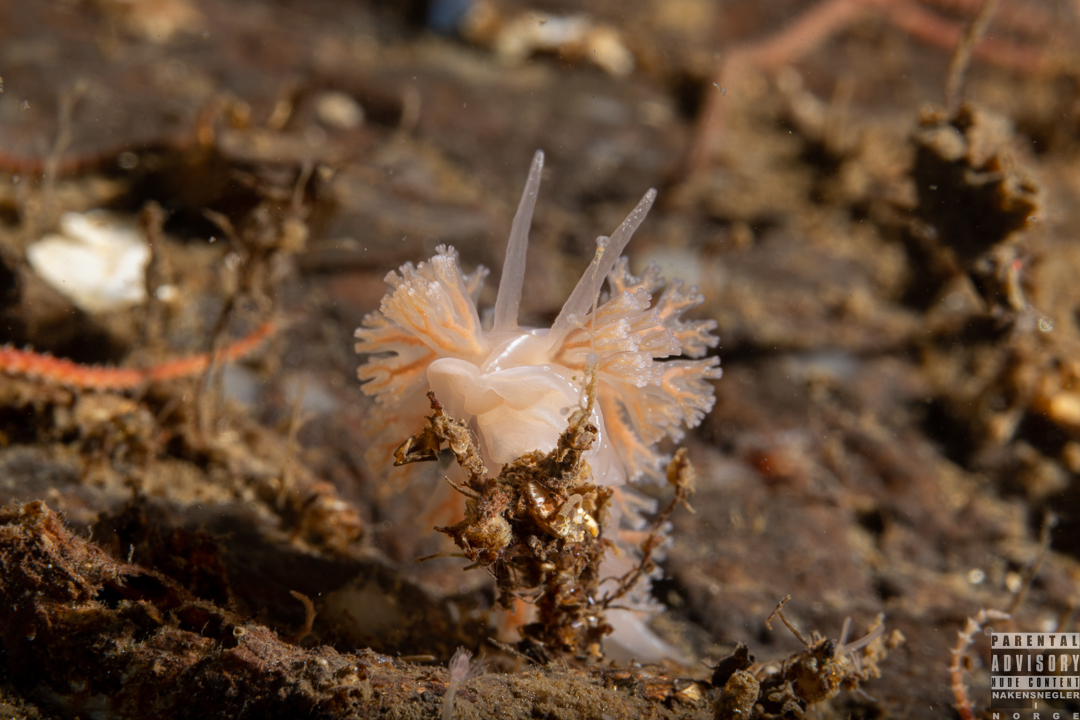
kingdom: Animalia
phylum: Mollusca
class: Gastropoda
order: Nudibranchia
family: Heroidae
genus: Hero
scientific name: Hero formosa
